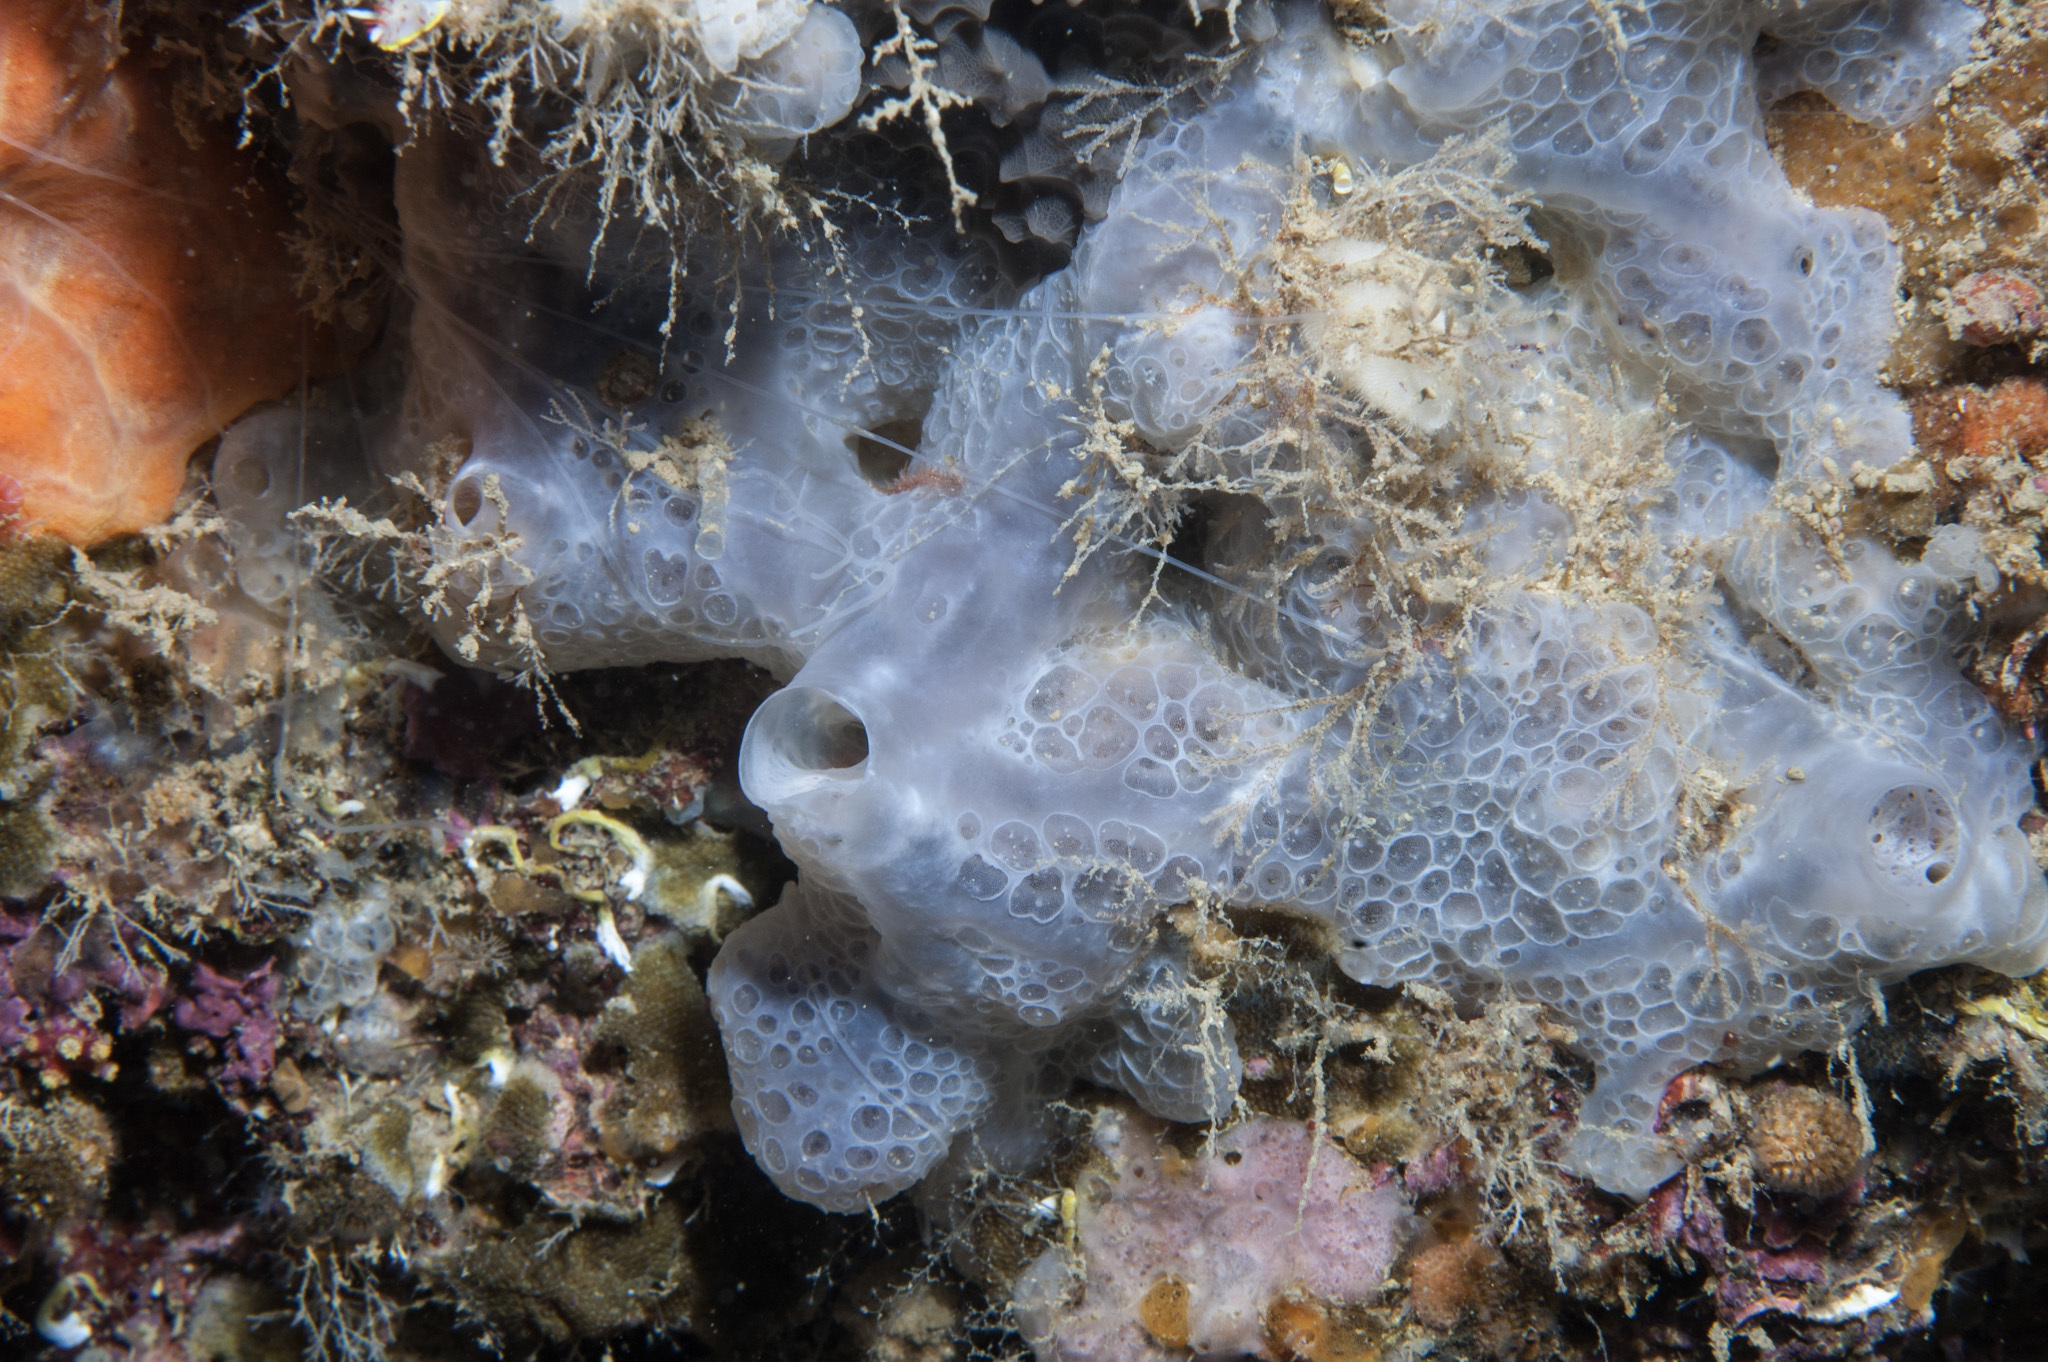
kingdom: Animalia
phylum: Porifera
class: Demospongiae
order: Poecilosclerida
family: Hymedesmiidae
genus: Phorbas
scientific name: Phorbas tenacior
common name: Bluish encrusting sponge
